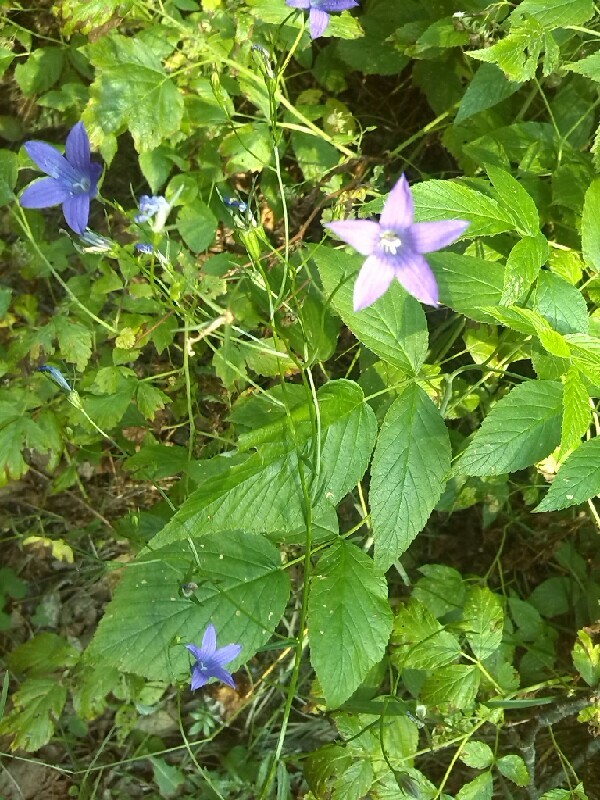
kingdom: Plantae
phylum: Tracheophyta
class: Magnoliopsida
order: Asterales
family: Campanulaceae
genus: Campanula
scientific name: Campanula patula
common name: Spreading bellflower
